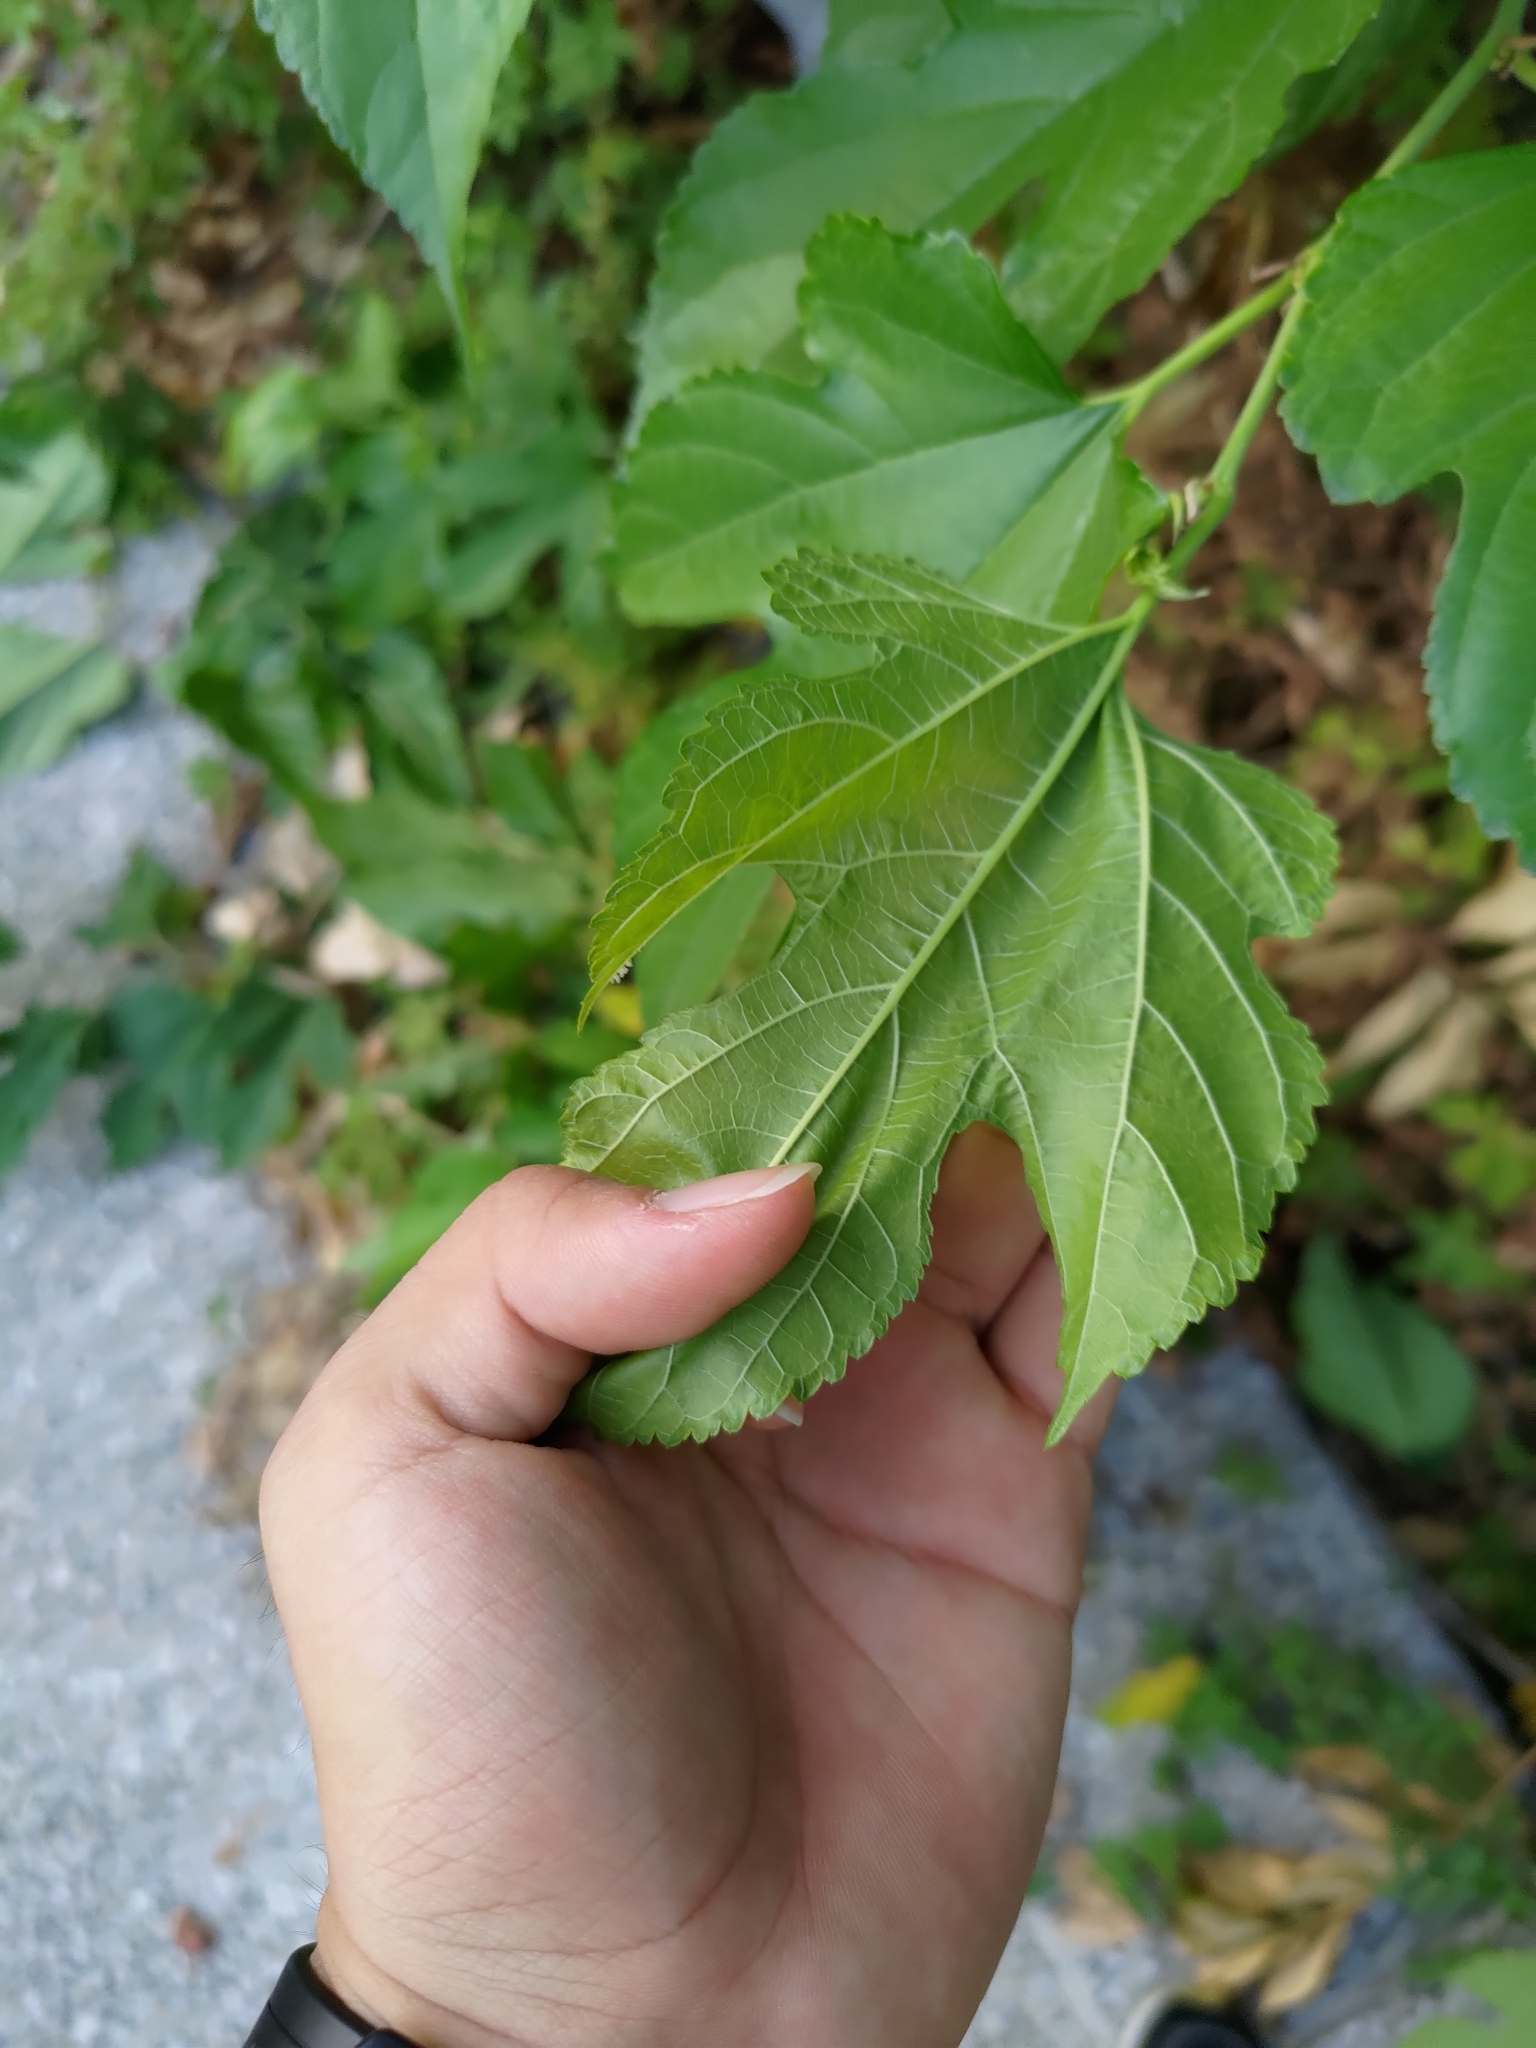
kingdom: Plantae
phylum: Tracheophyta
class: Magnoliopsida
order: Rosales
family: Moraceae
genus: Morus
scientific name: Morus indica
